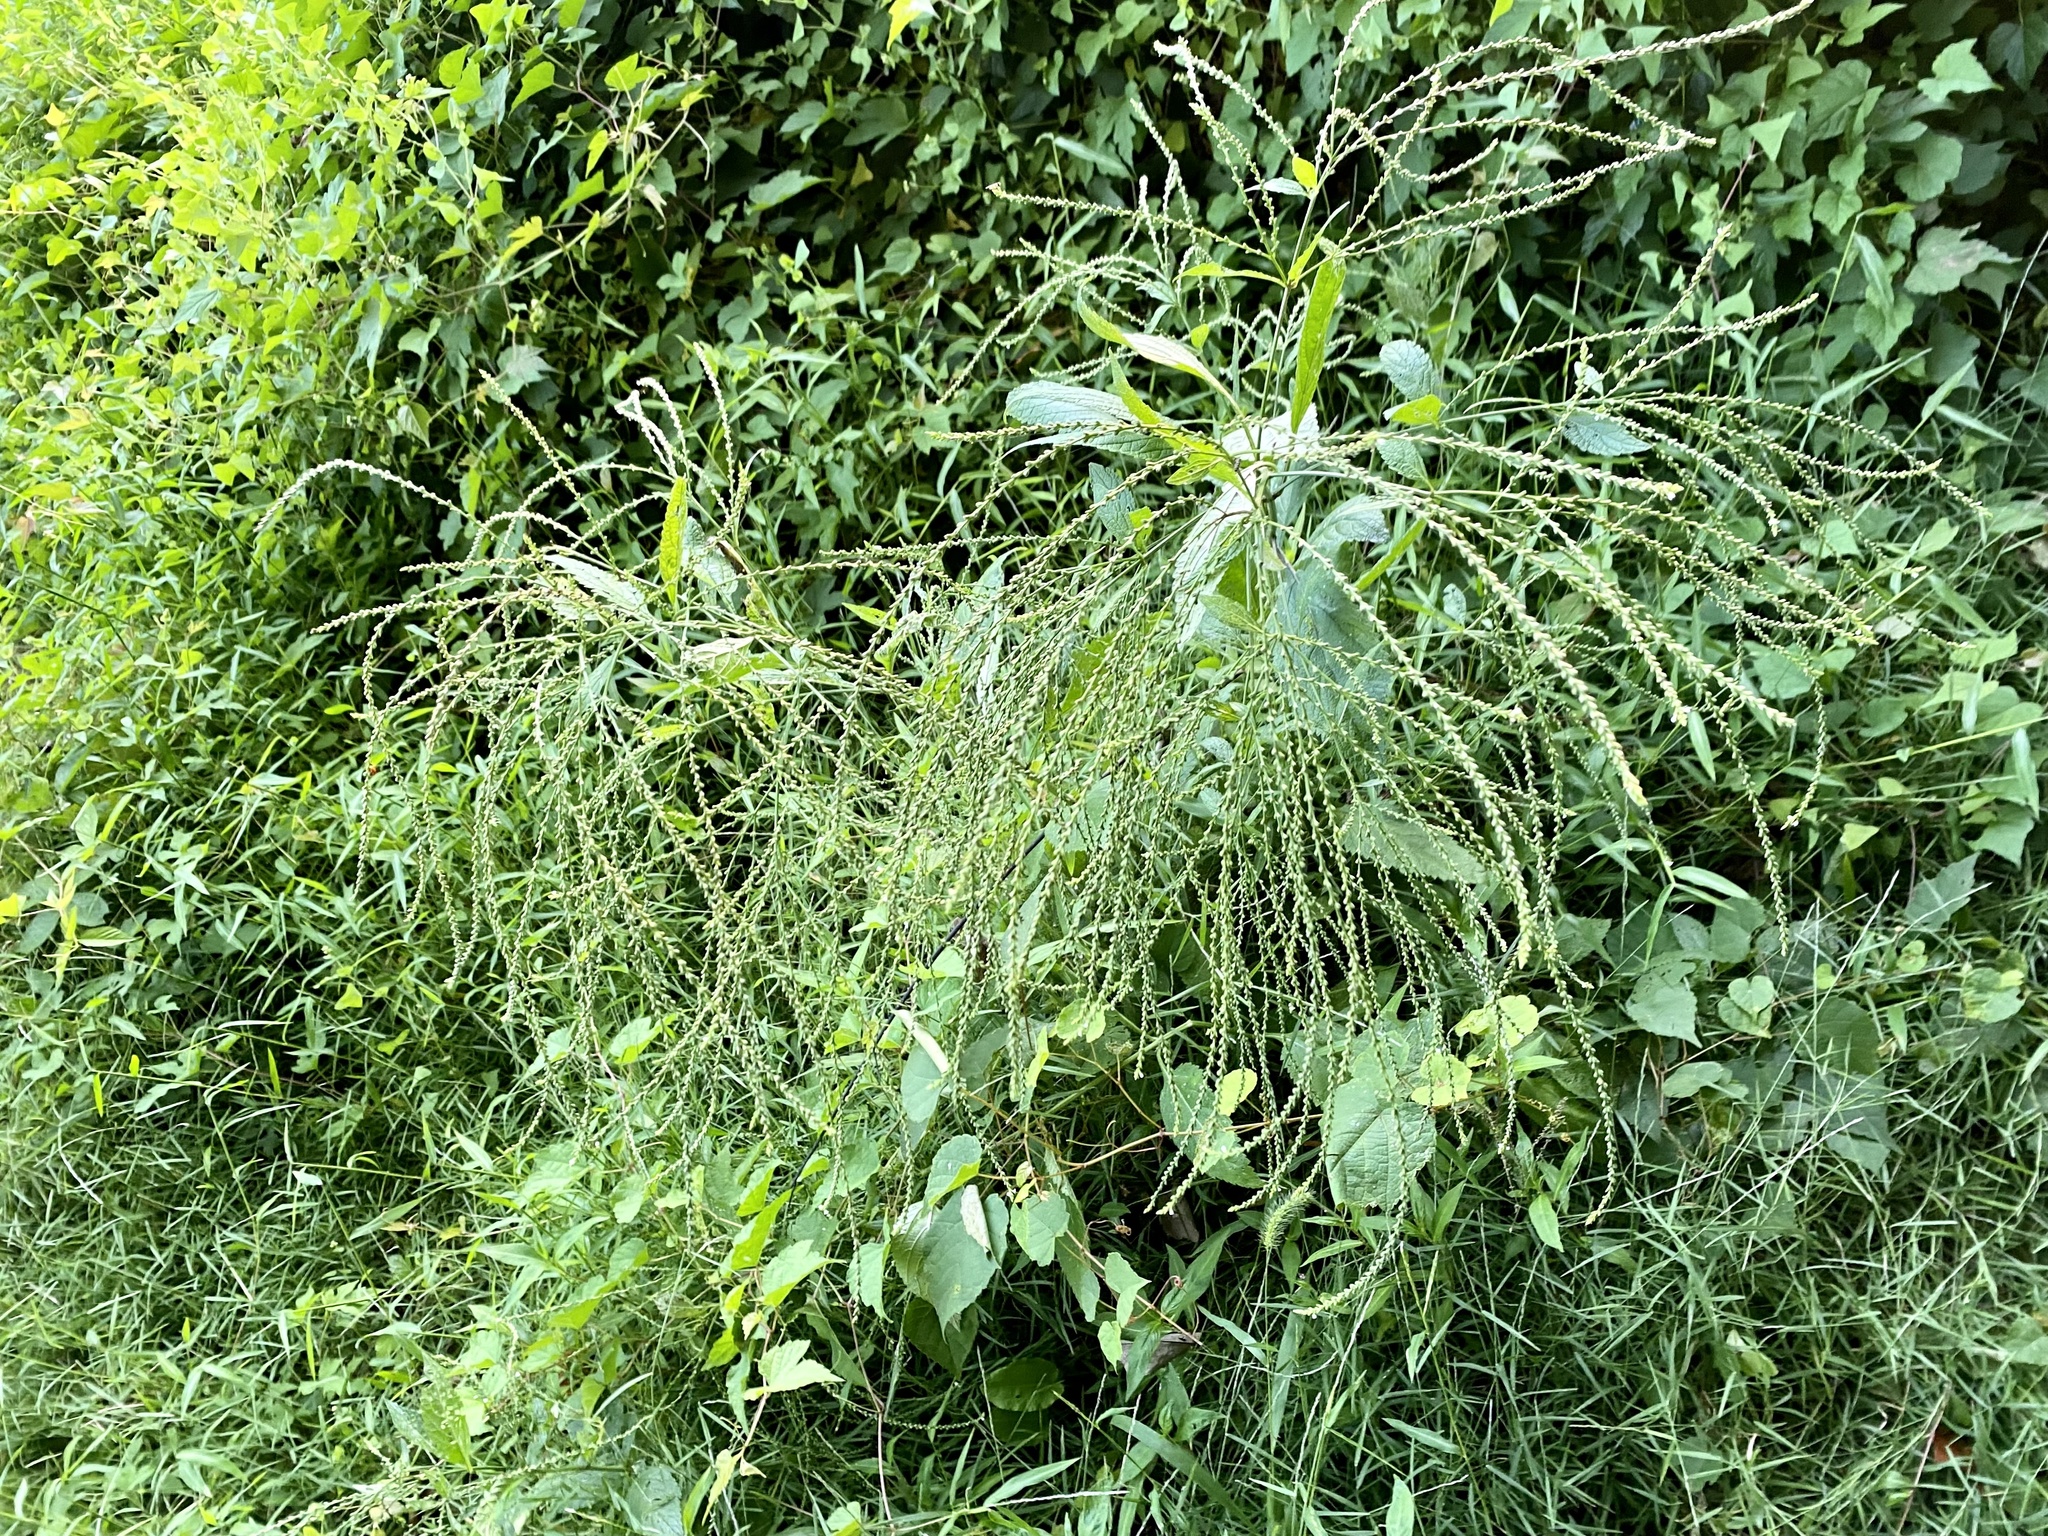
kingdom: Plantae
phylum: Tracheophyta
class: Magnoliopsida
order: Lamiales
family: Verbenaceae
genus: Verbena
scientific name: Verbena urticifolia
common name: Nettle-leaved vervain
